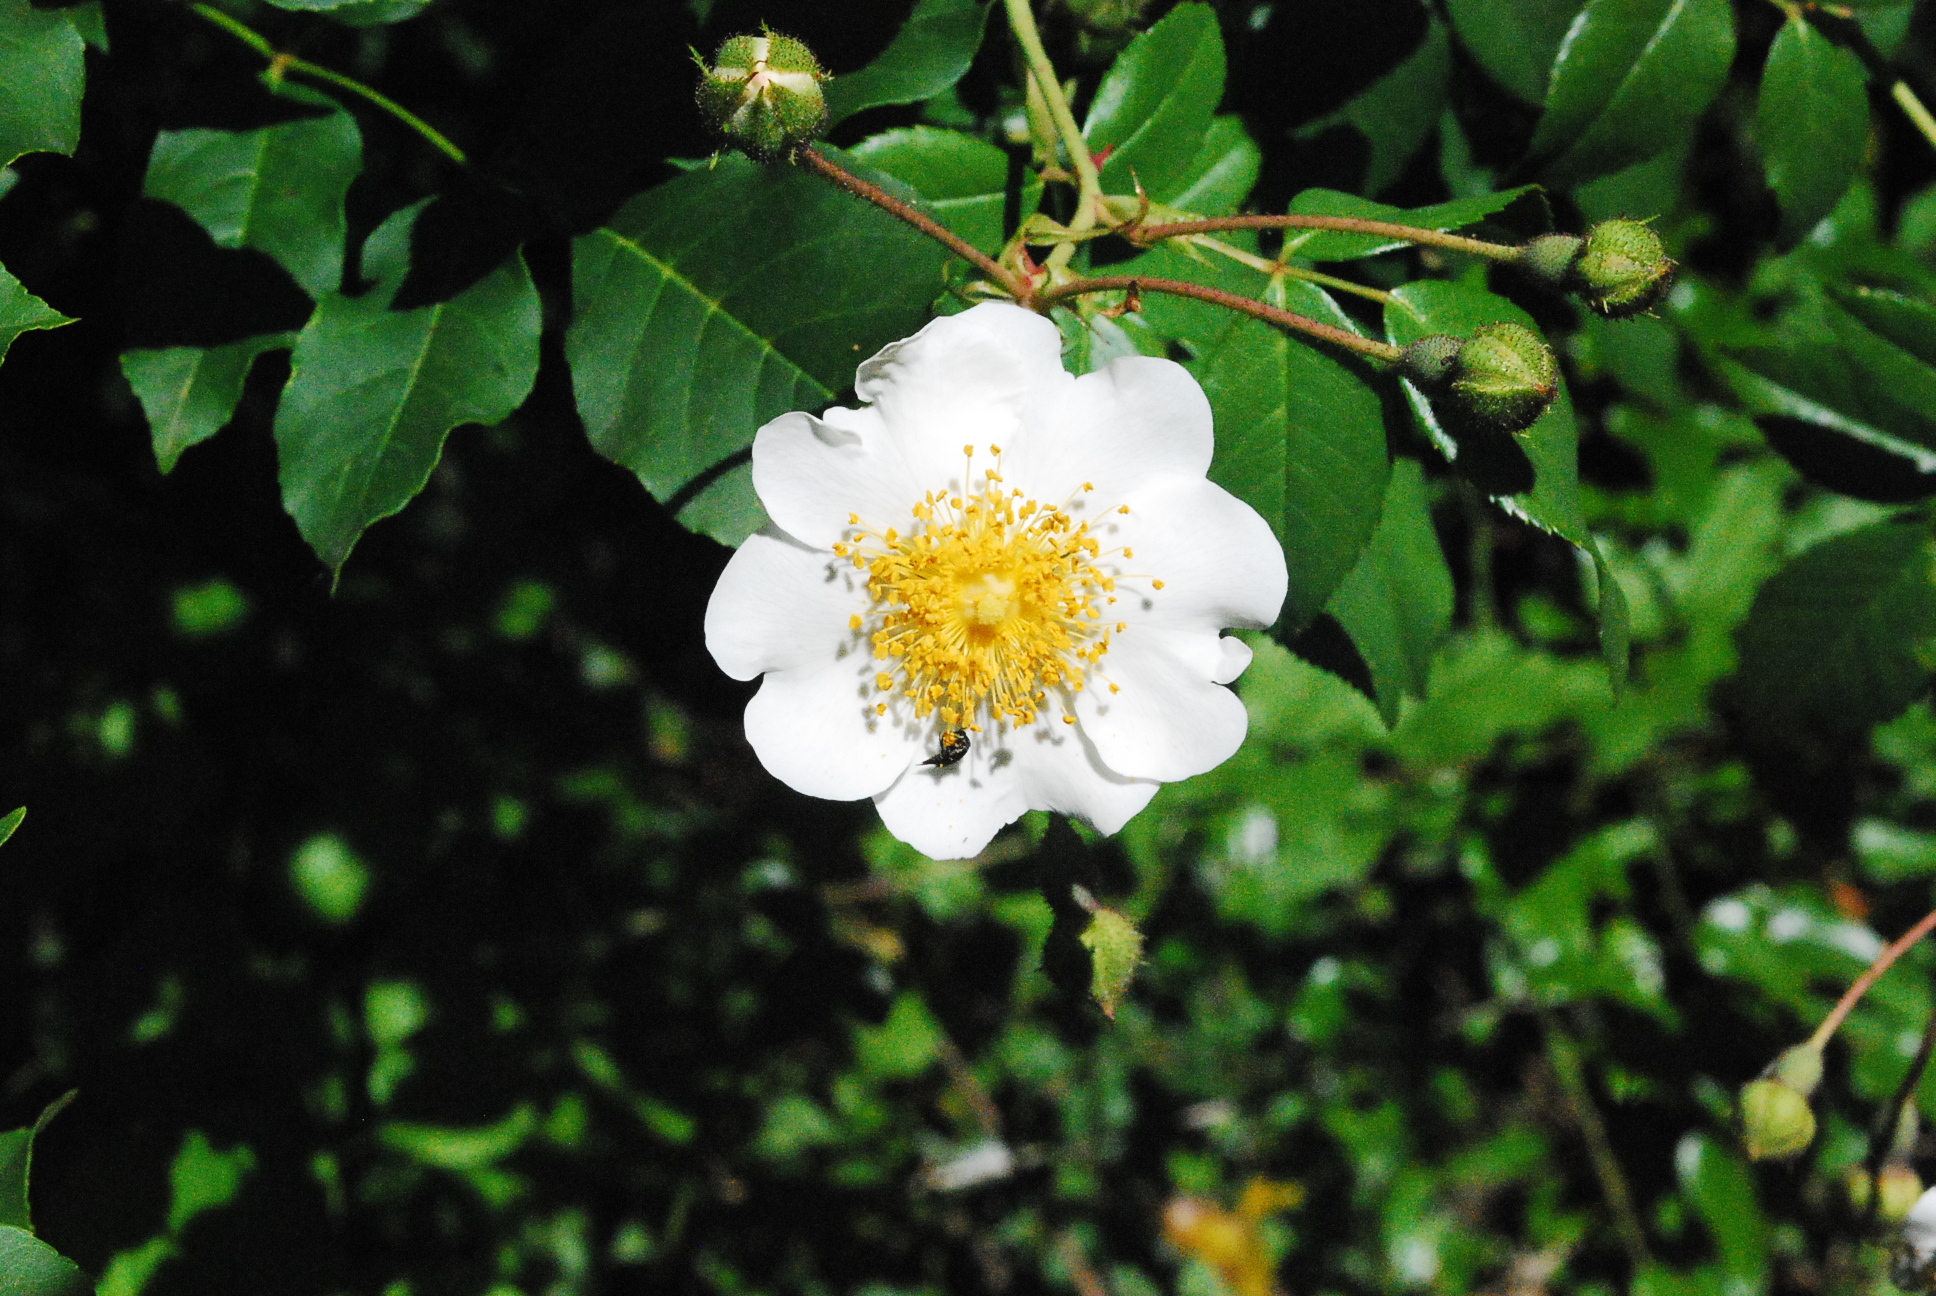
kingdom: Plantae
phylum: Tracheophyta
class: Magnoliopsida
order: Rosales
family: Rosaceae
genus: Rosa
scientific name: Rosa sempervirens
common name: Evergreen rose
